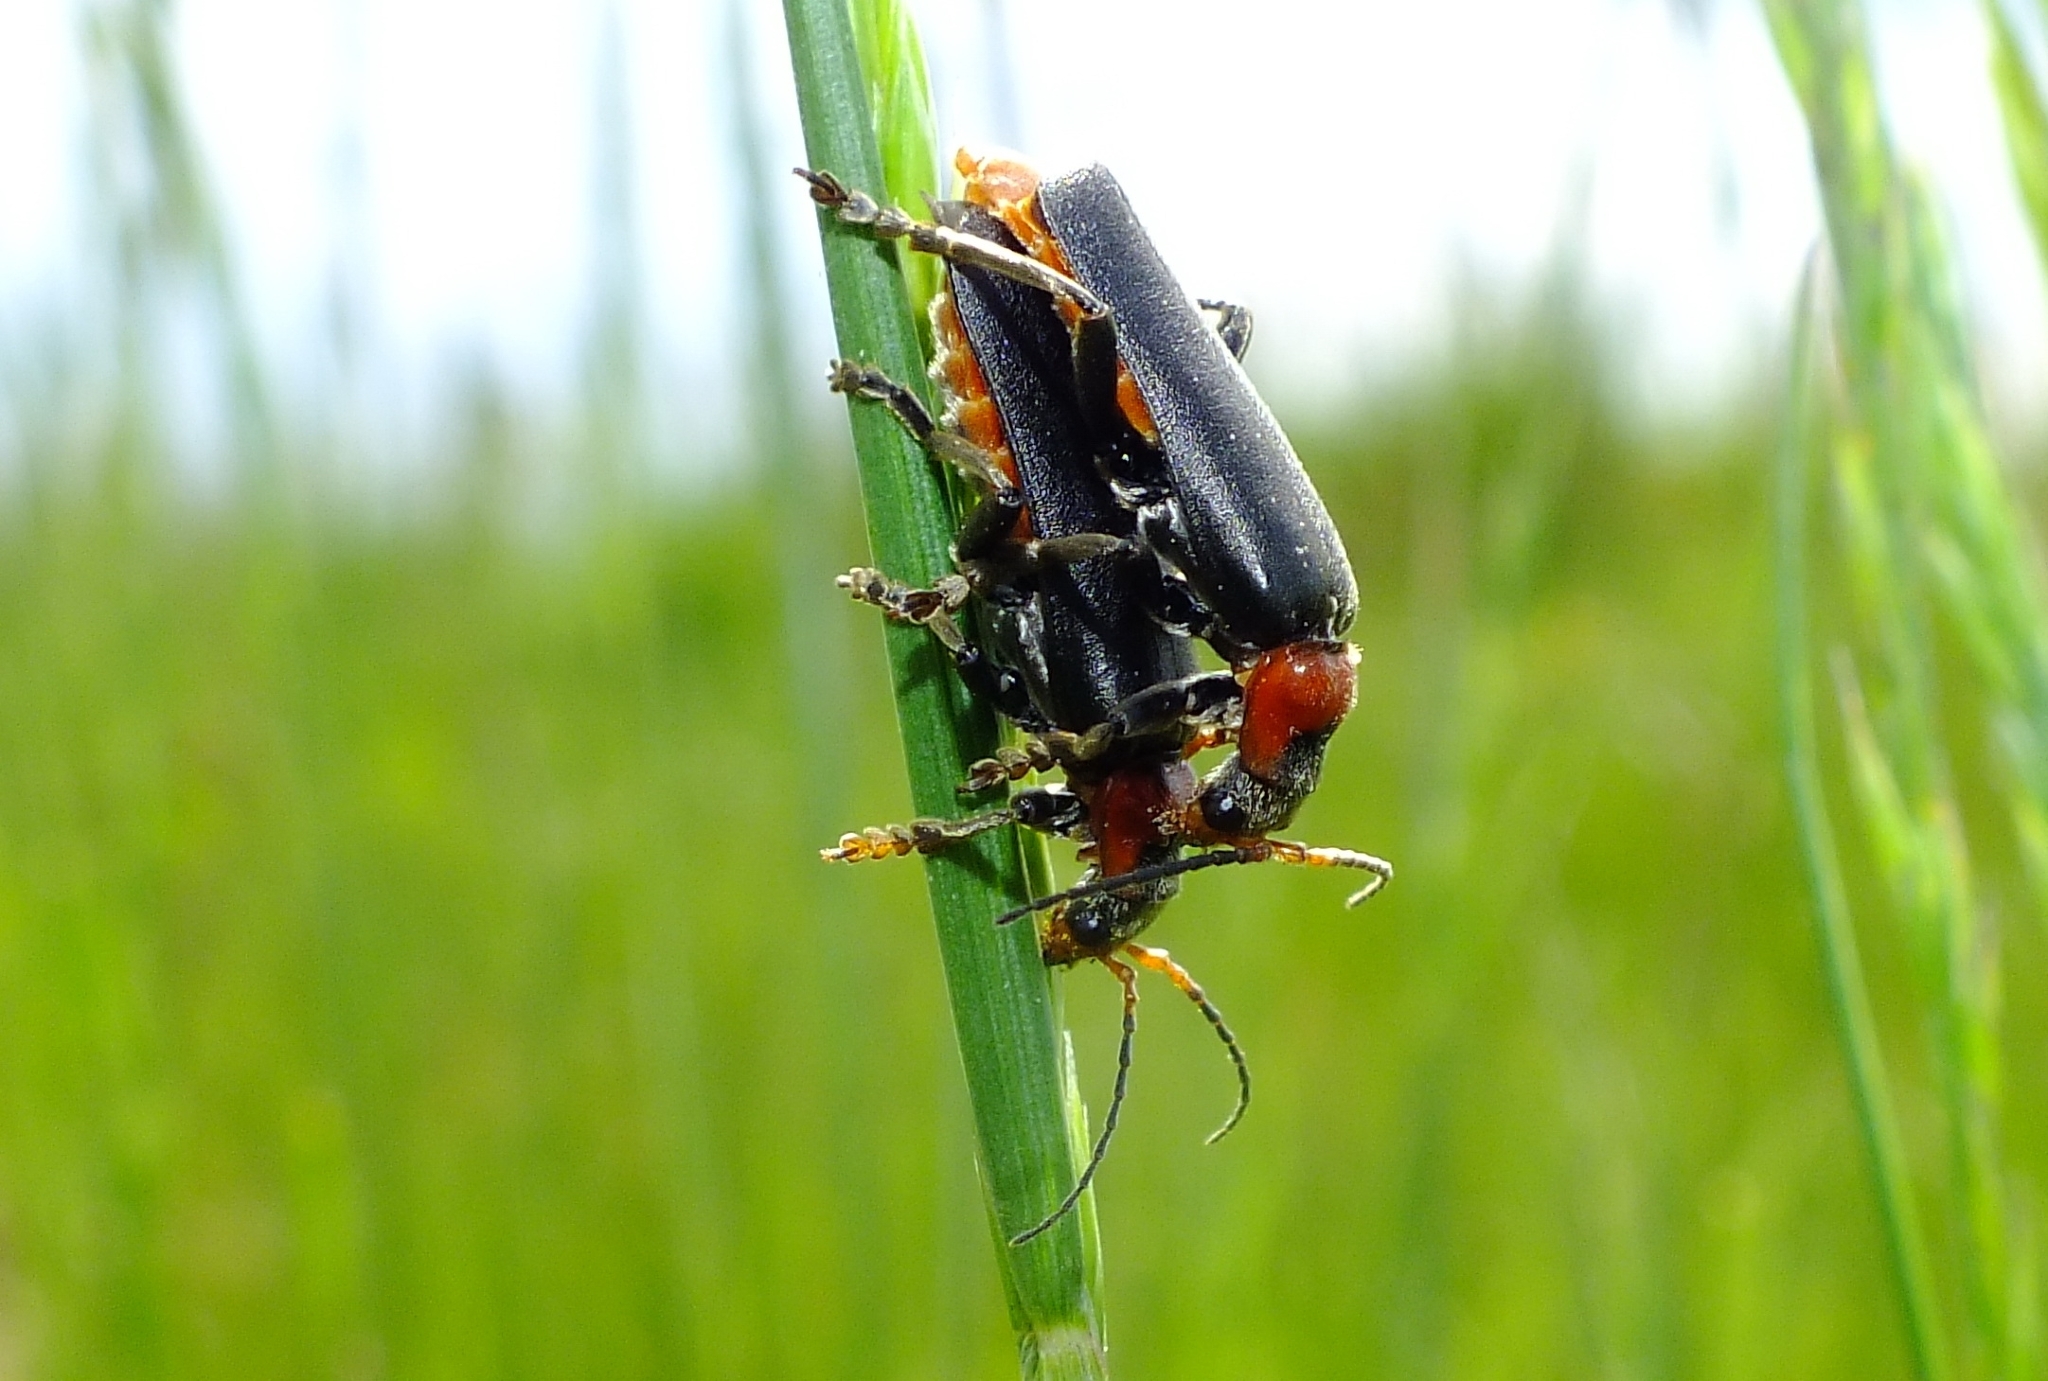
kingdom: Animalia
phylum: Arthropoda
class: Insecta
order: Coleoptera
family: Cantharidae
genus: Cantharis
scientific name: Cantharis fusca
